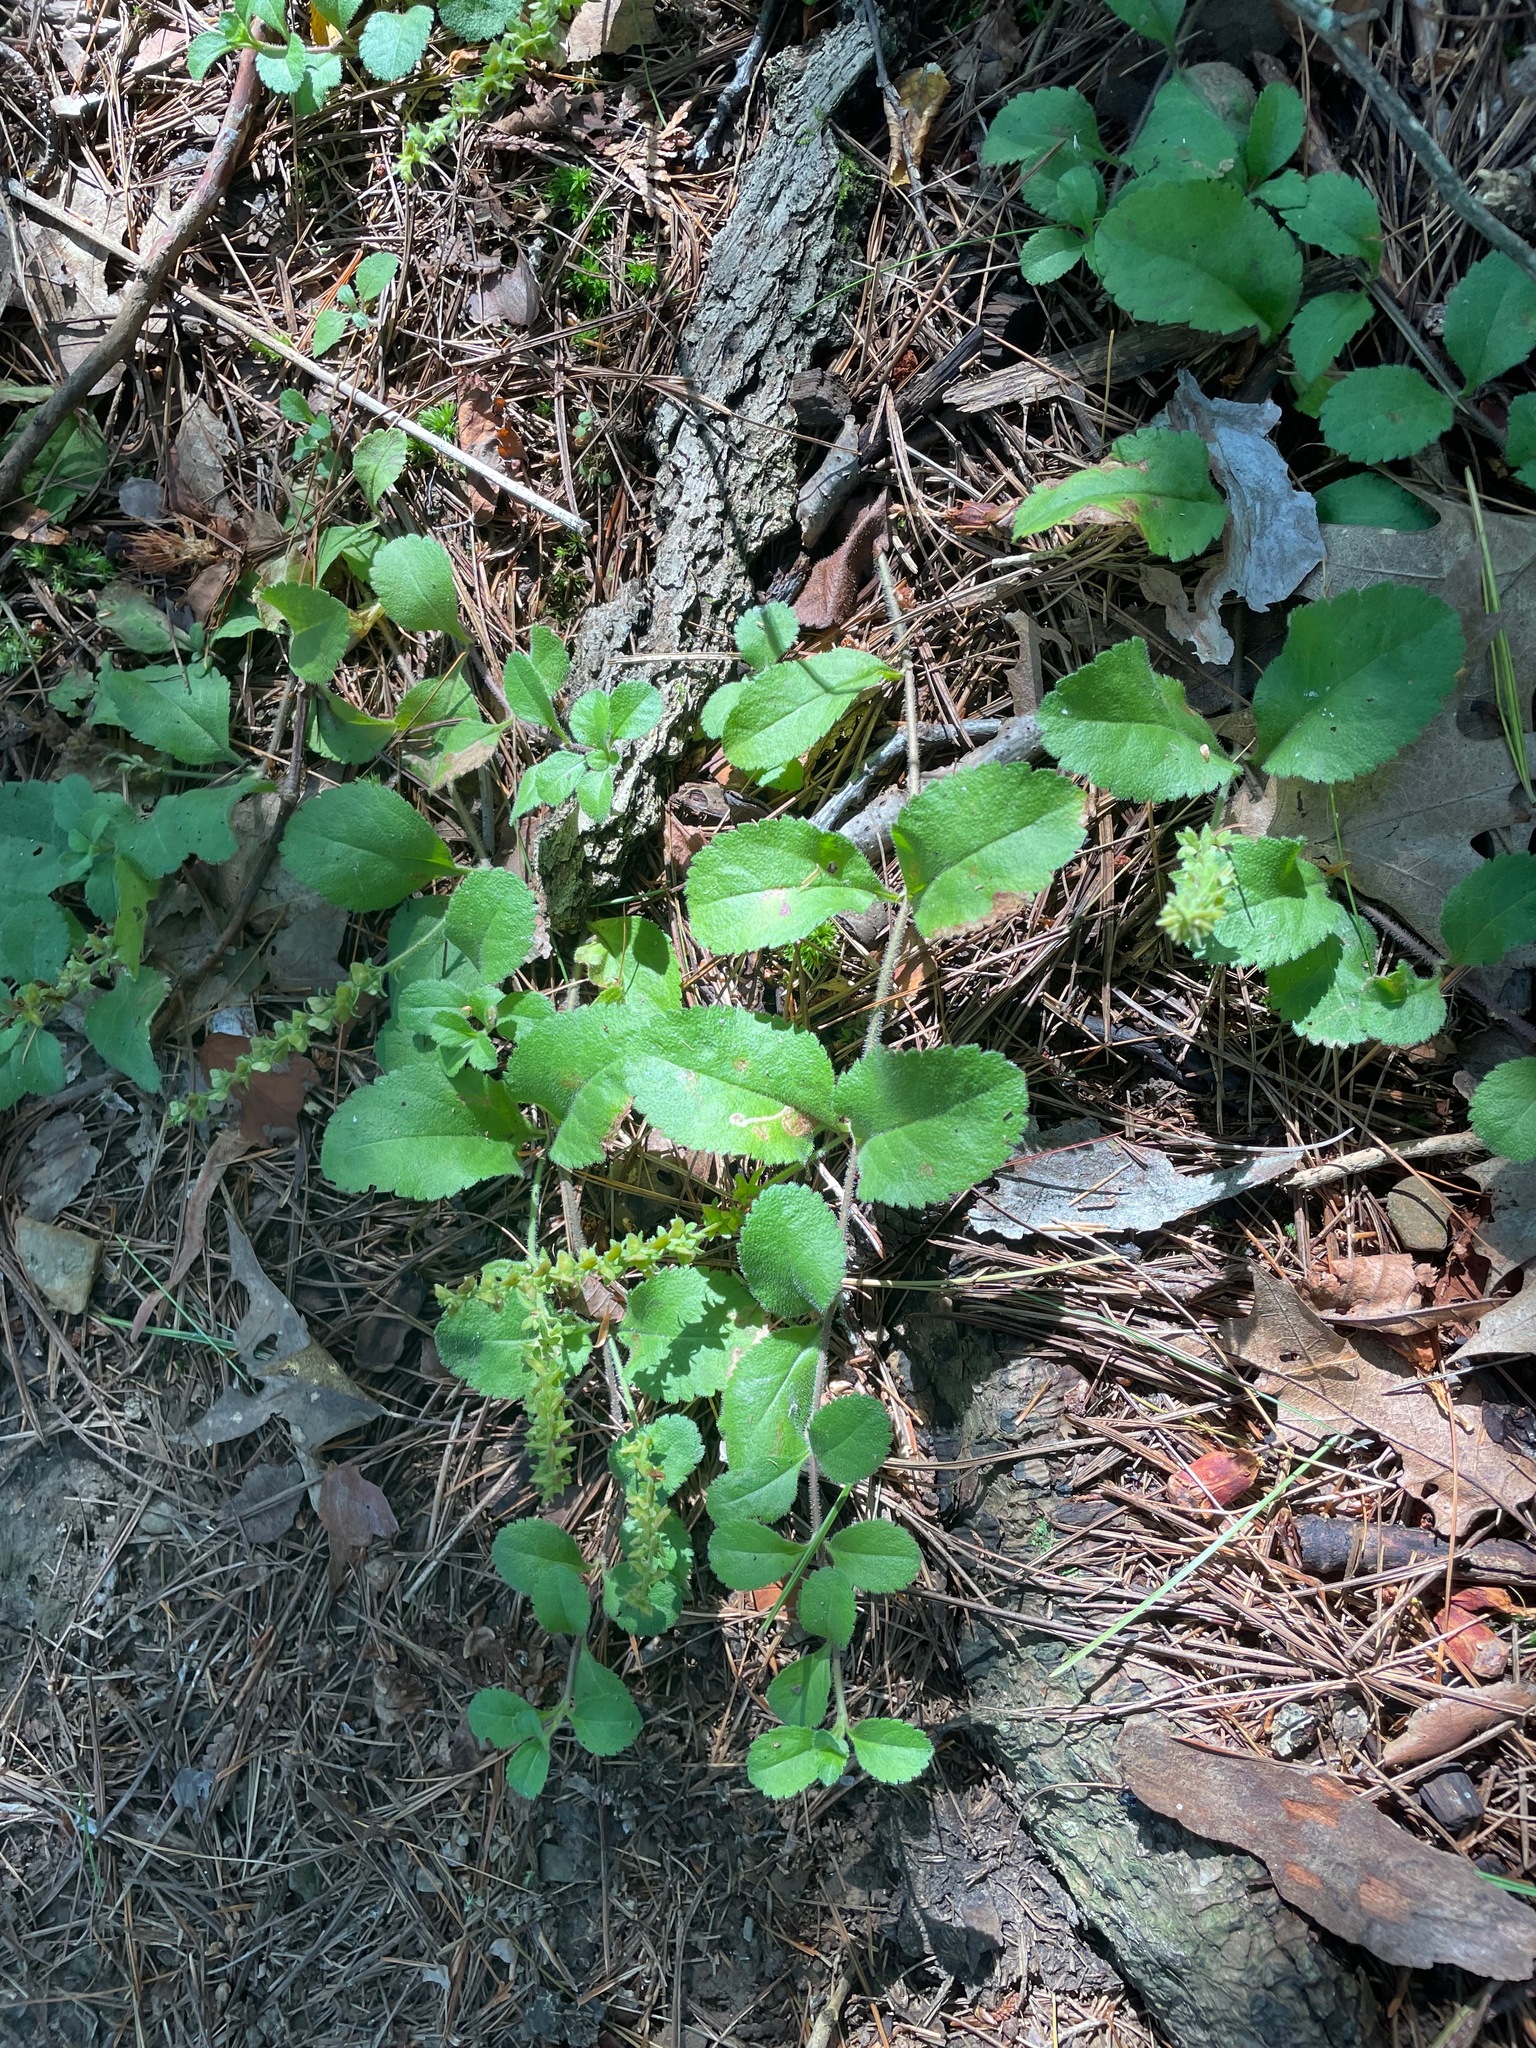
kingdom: Plantae
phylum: Tracheophyta
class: Magnoliopsida
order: Lamiales
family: Plantaginaceae
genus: Veronica
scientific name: Veronica officinalis
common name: Common speedwell
